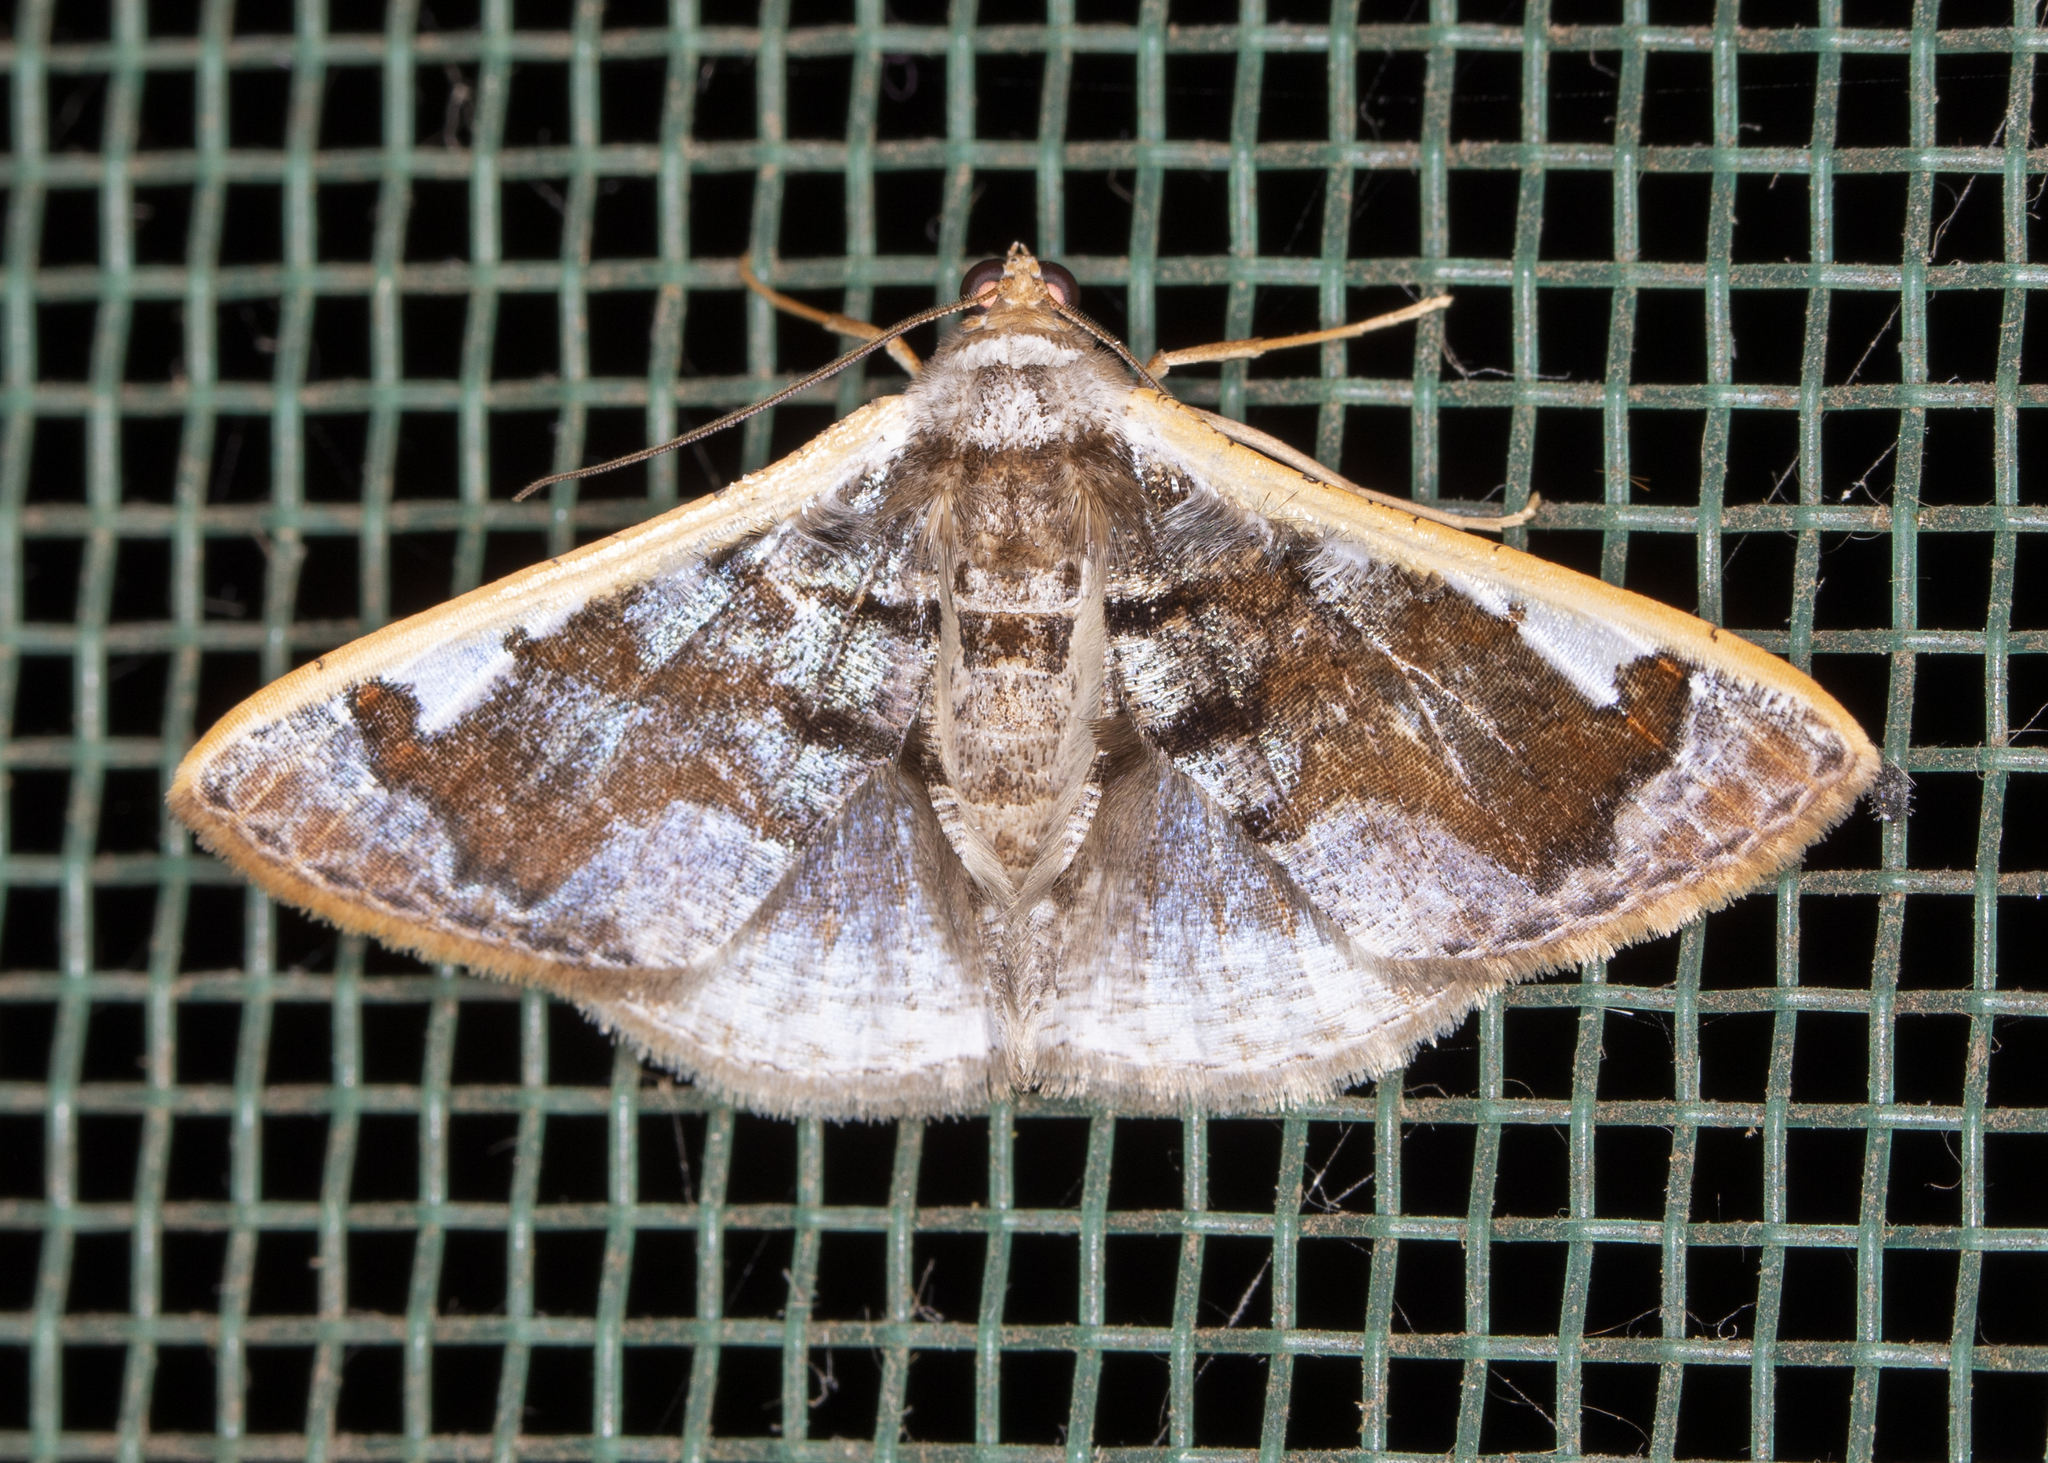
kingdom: Animalia
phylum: Arthropoda
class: Insecta
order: Lepidoptera
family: Geometridae
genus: Gyostega
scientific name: Gyostega floccosa
